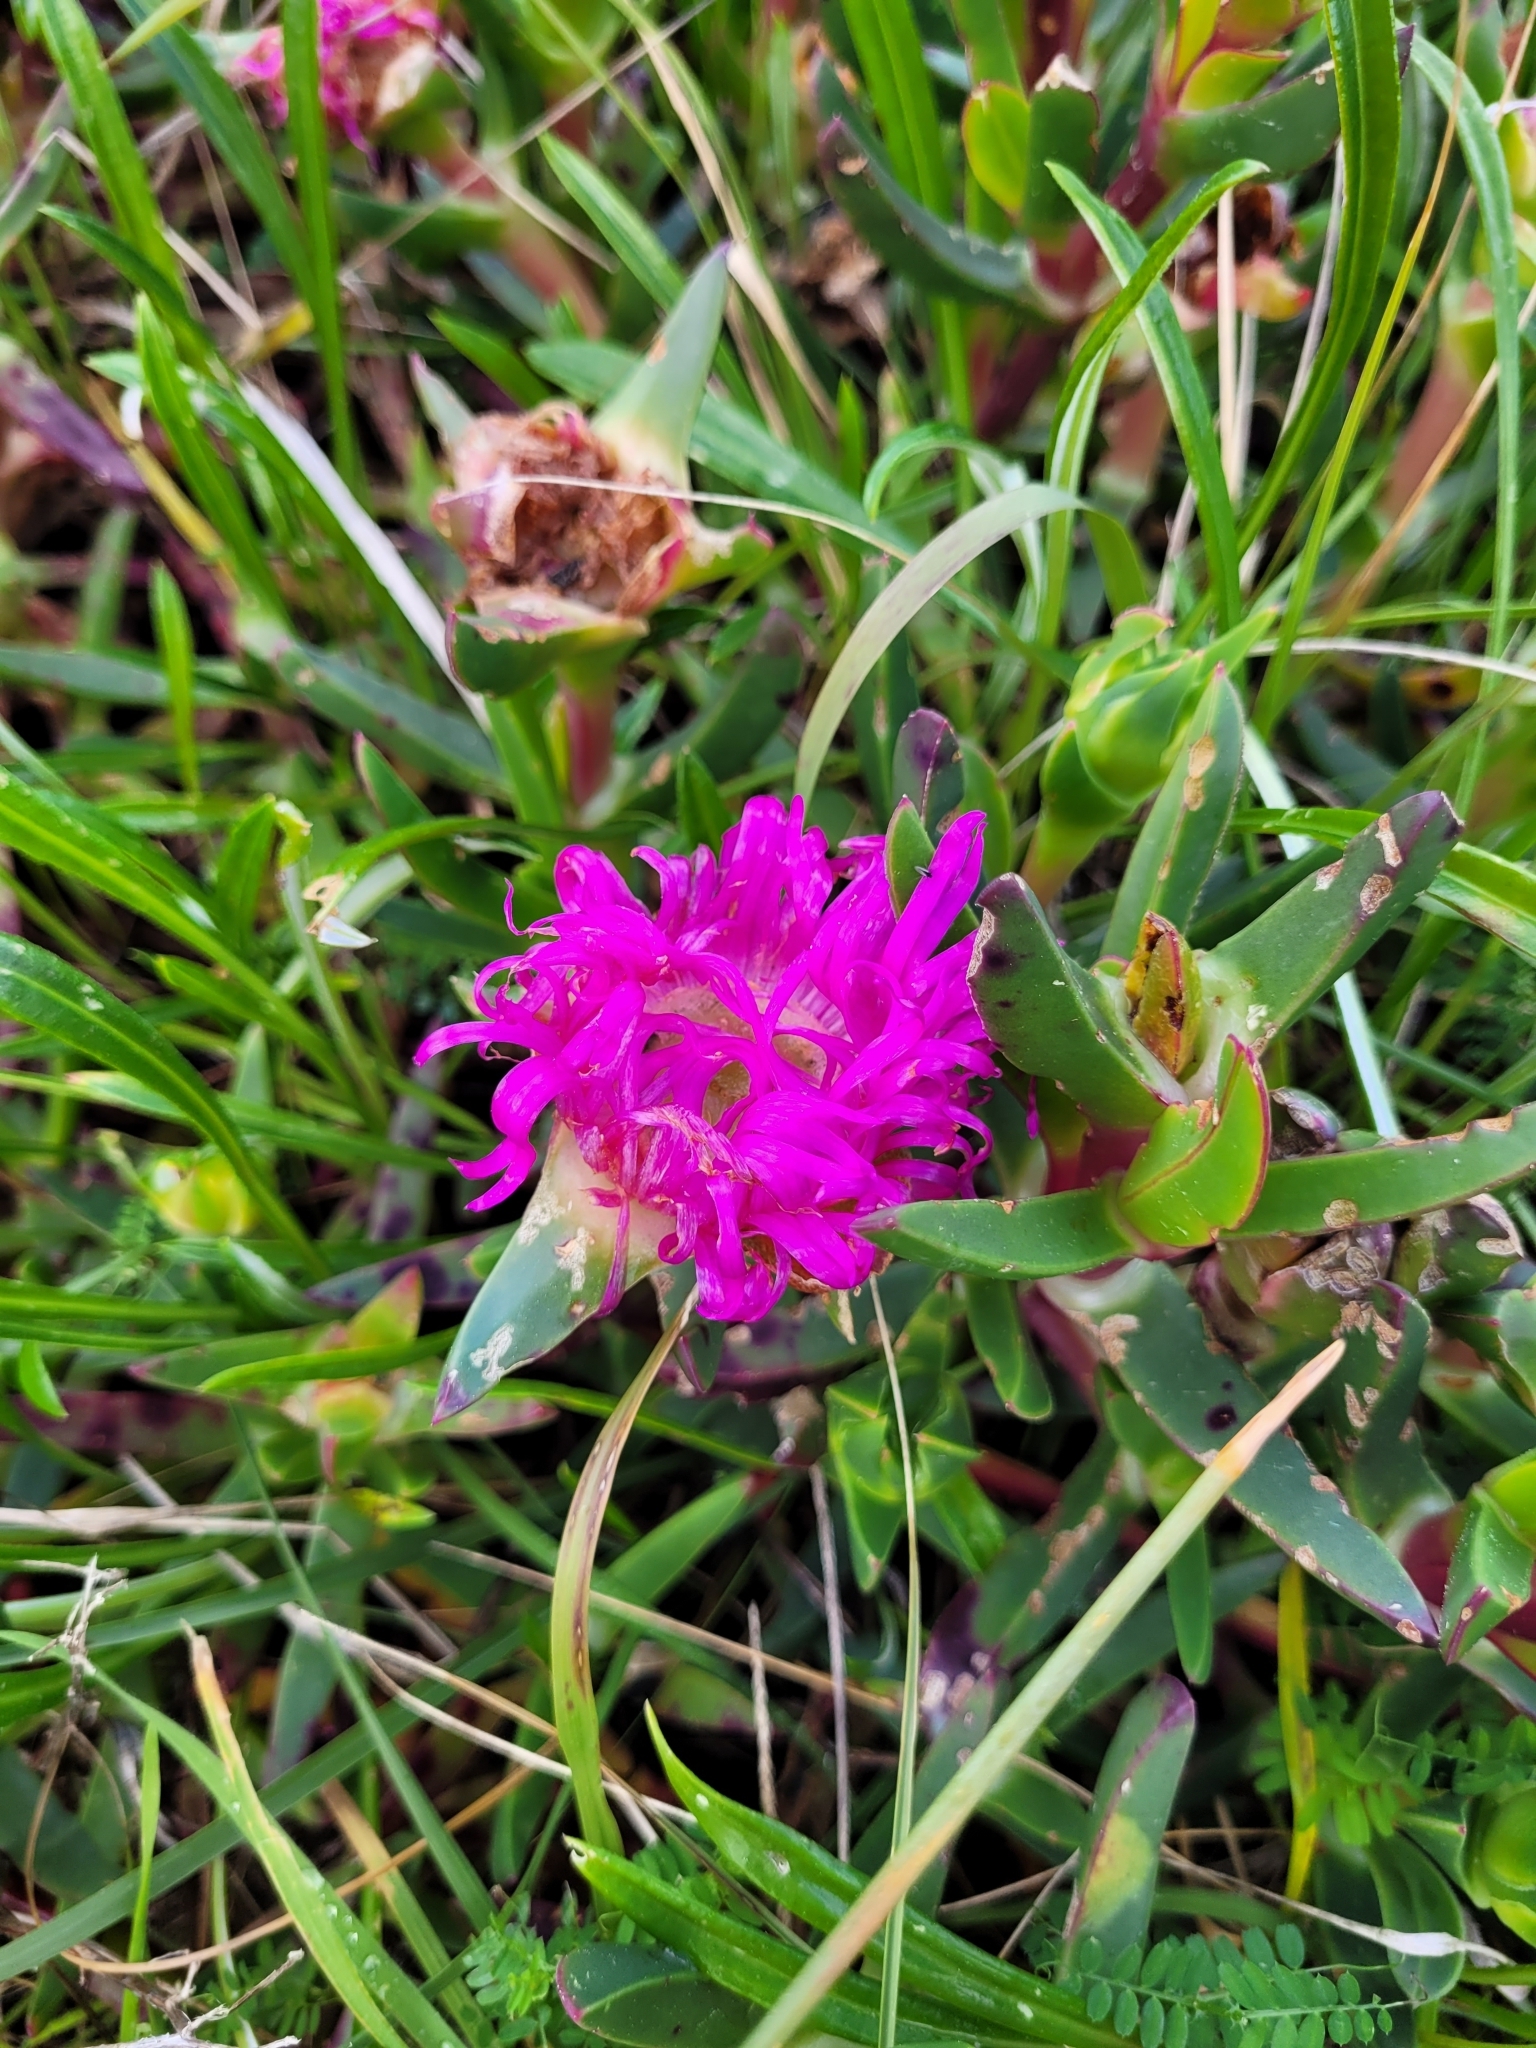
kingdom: Plantae
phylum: Tracheophyta
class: Magnoliopsida
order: Caryophyllales
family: Aizoaceae
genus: Carpobrotus
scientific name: Carpobrotus chilensis
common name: Sea fig
